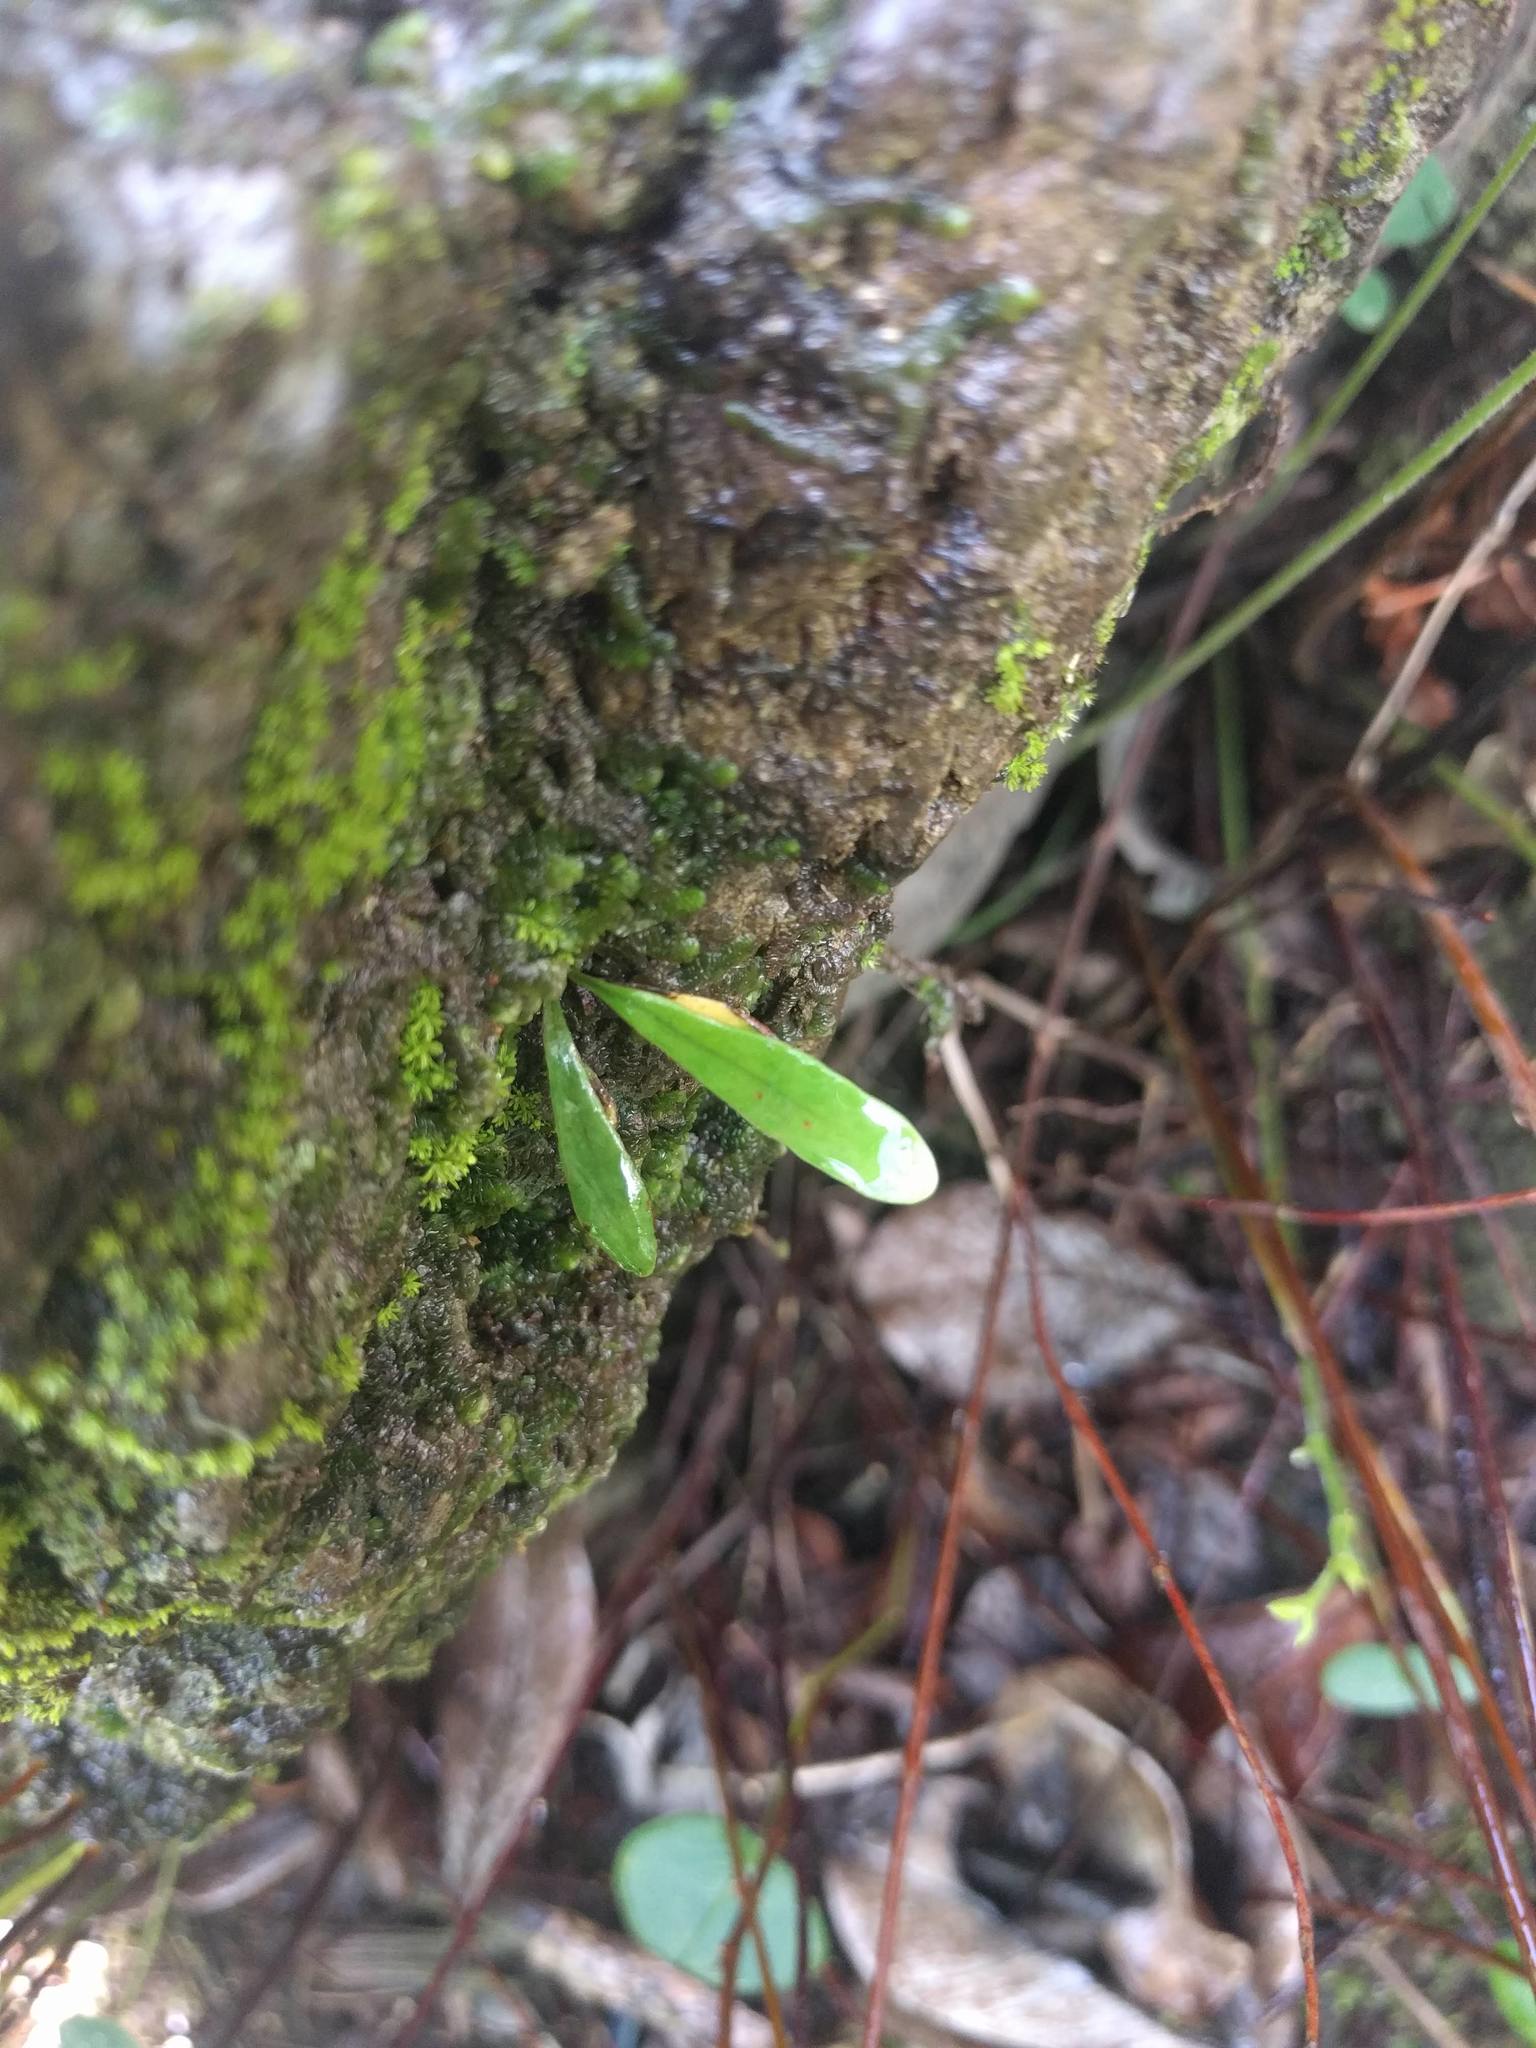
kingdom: Plantae
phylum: Tracheophyta
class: Polypodiopsida
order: Polypodiales
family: Polypodiaceae
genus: Lepisorus
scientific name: Lepisorus thunbergianus
